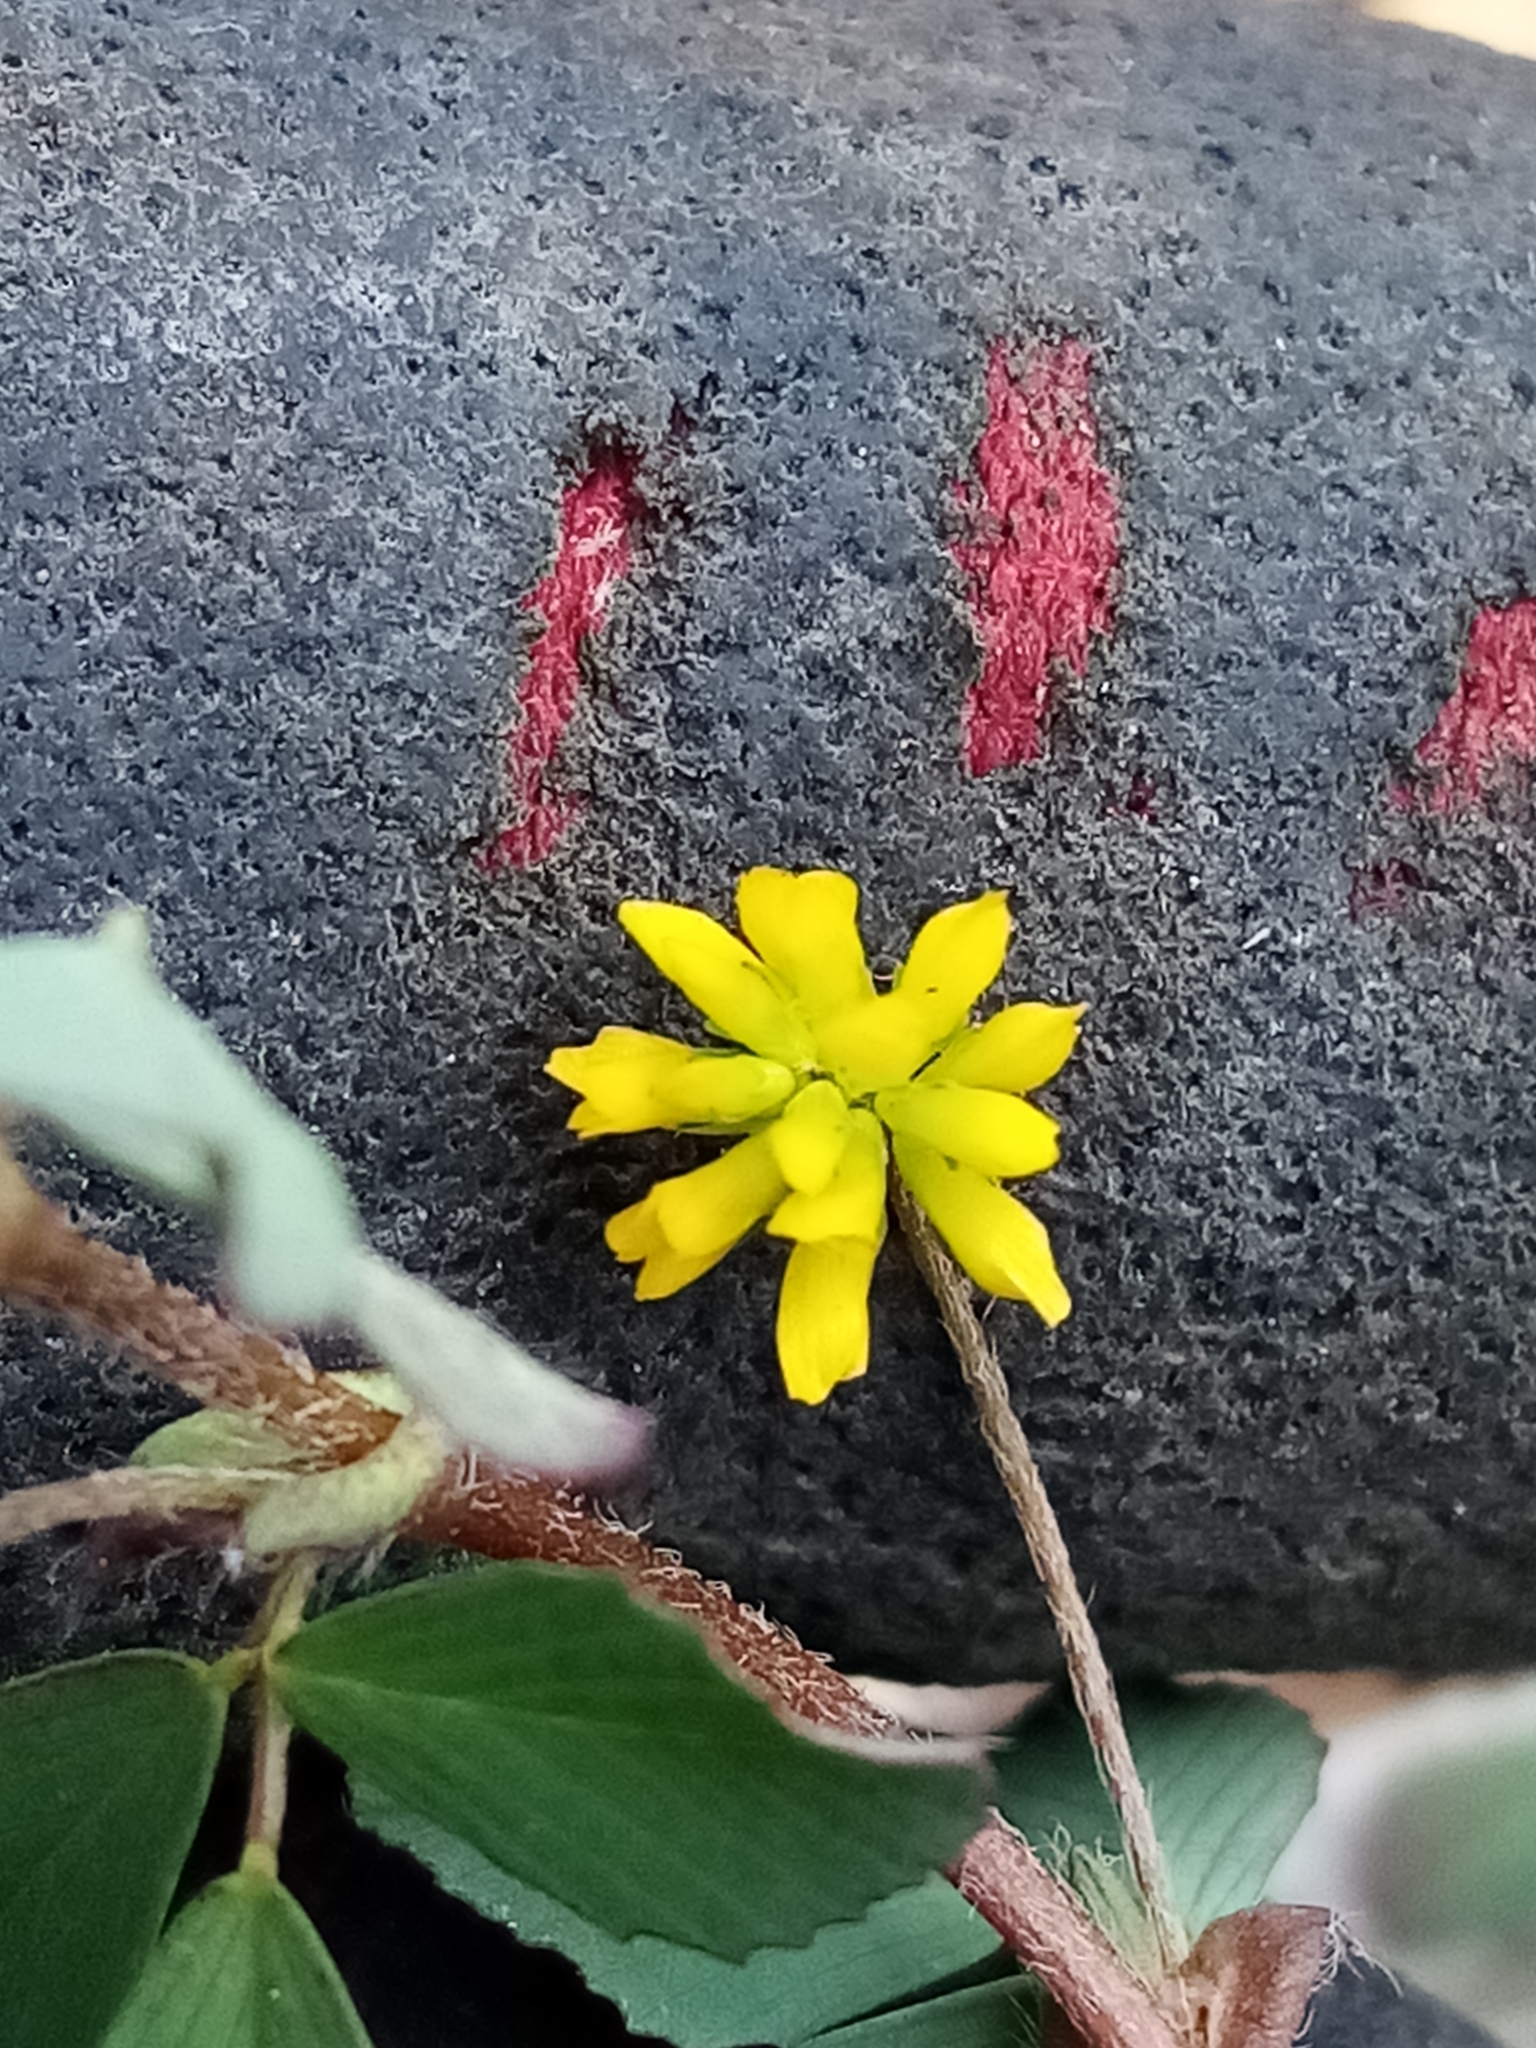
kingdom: Plantae
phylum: Tracheophyta
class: Magnoliopsida
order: Fabales
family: Fabaceae
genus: Trifolium
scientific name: Trifolium dubium
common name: Suckling clover
